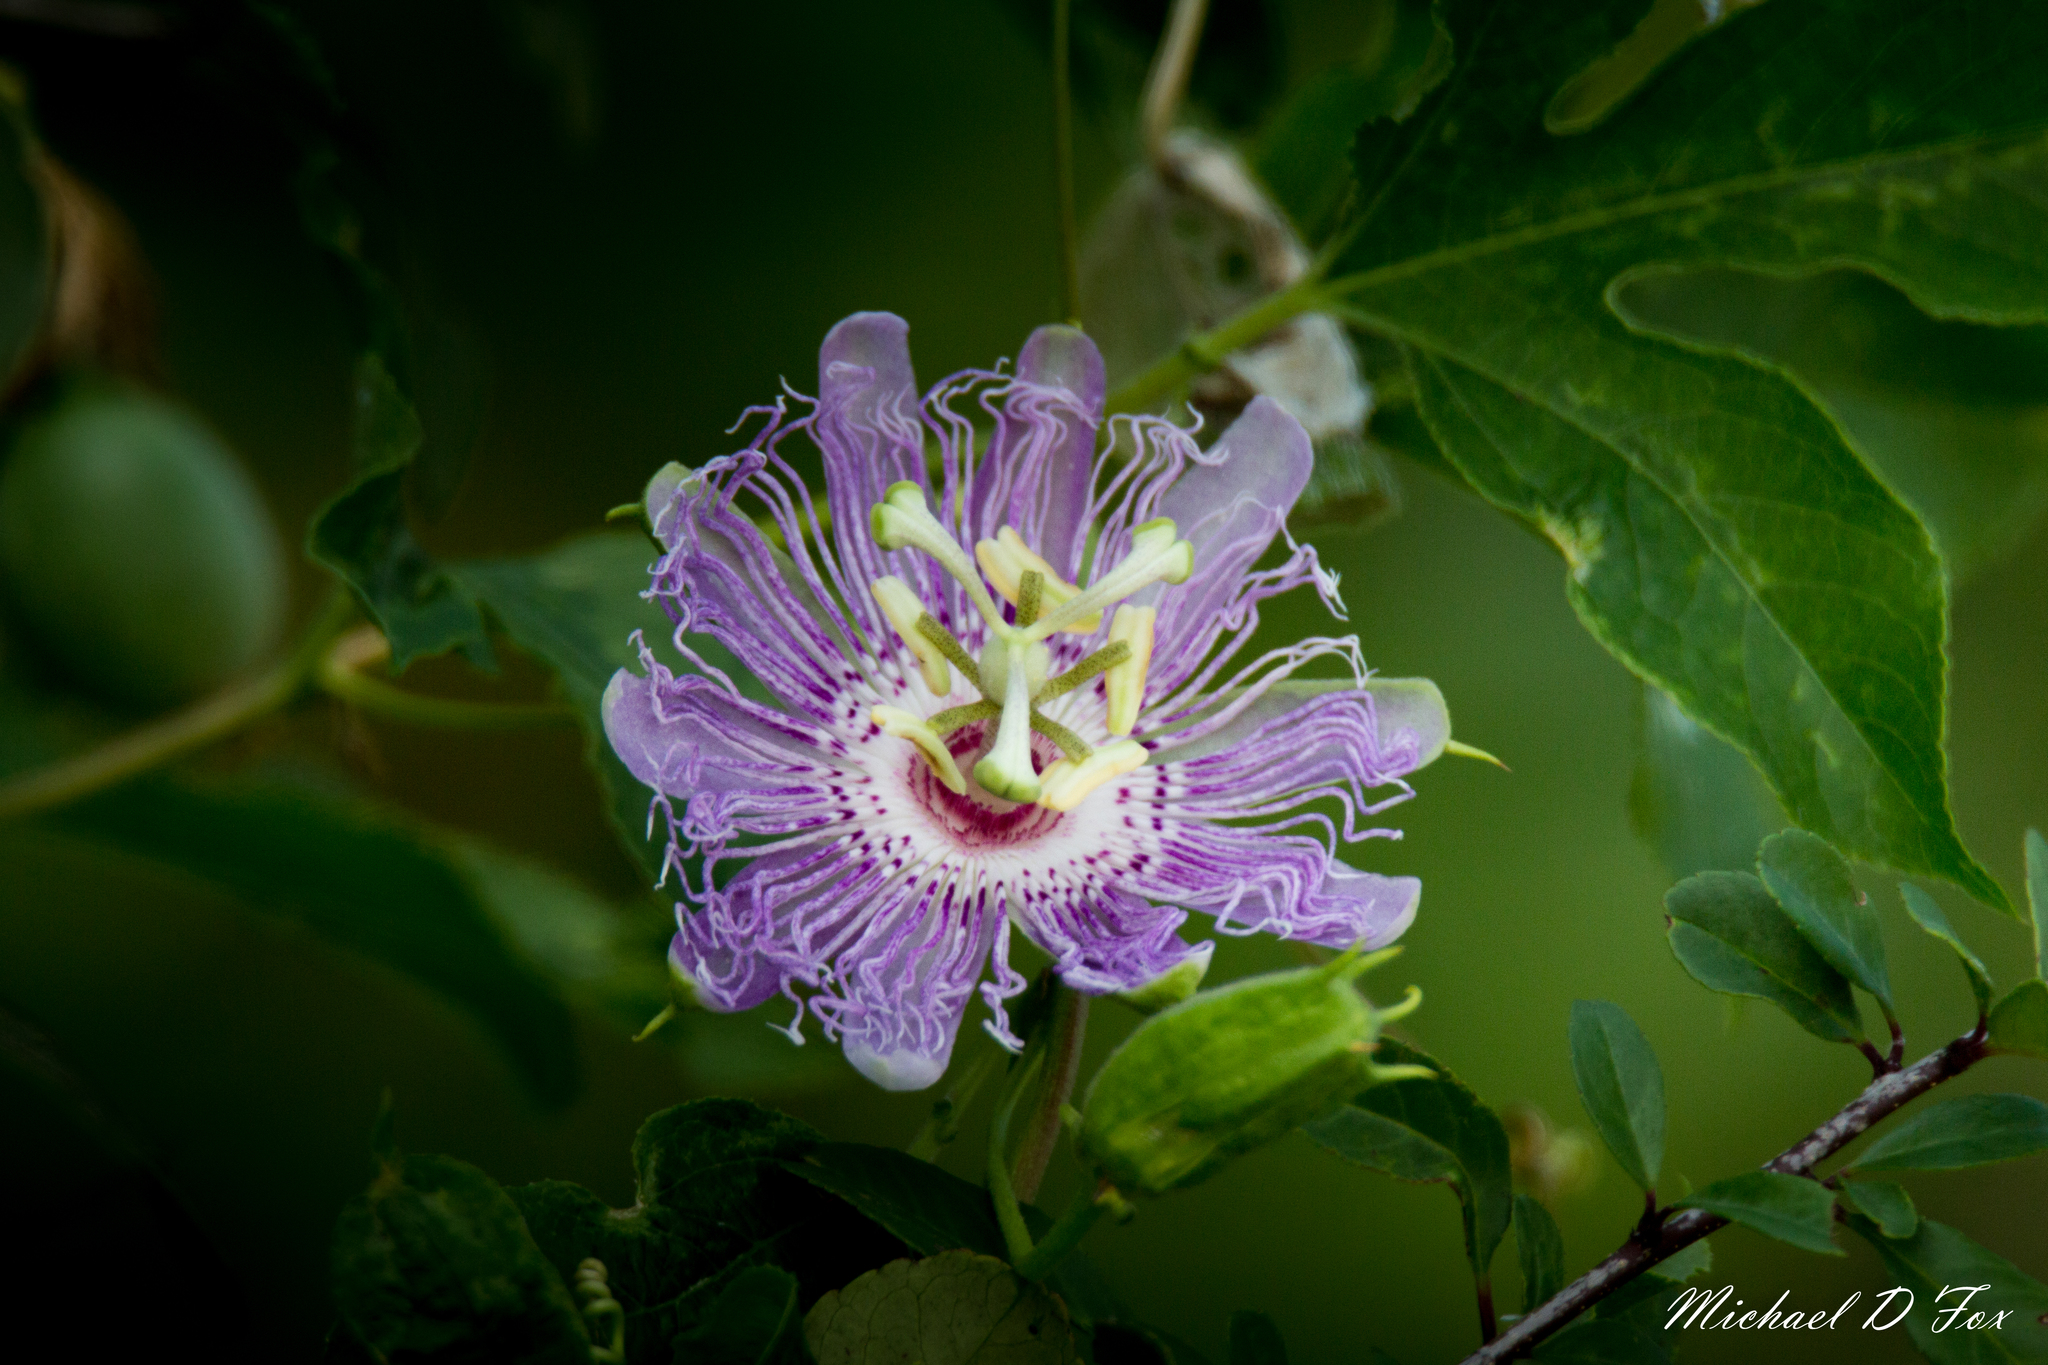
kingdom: Plantae
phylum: Tracheophyta
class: Magnoliopsida
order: Malpighiales
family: Passifloraceae
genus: Passiflora
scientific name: Passiflora incarnata
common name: Apricot-vine
